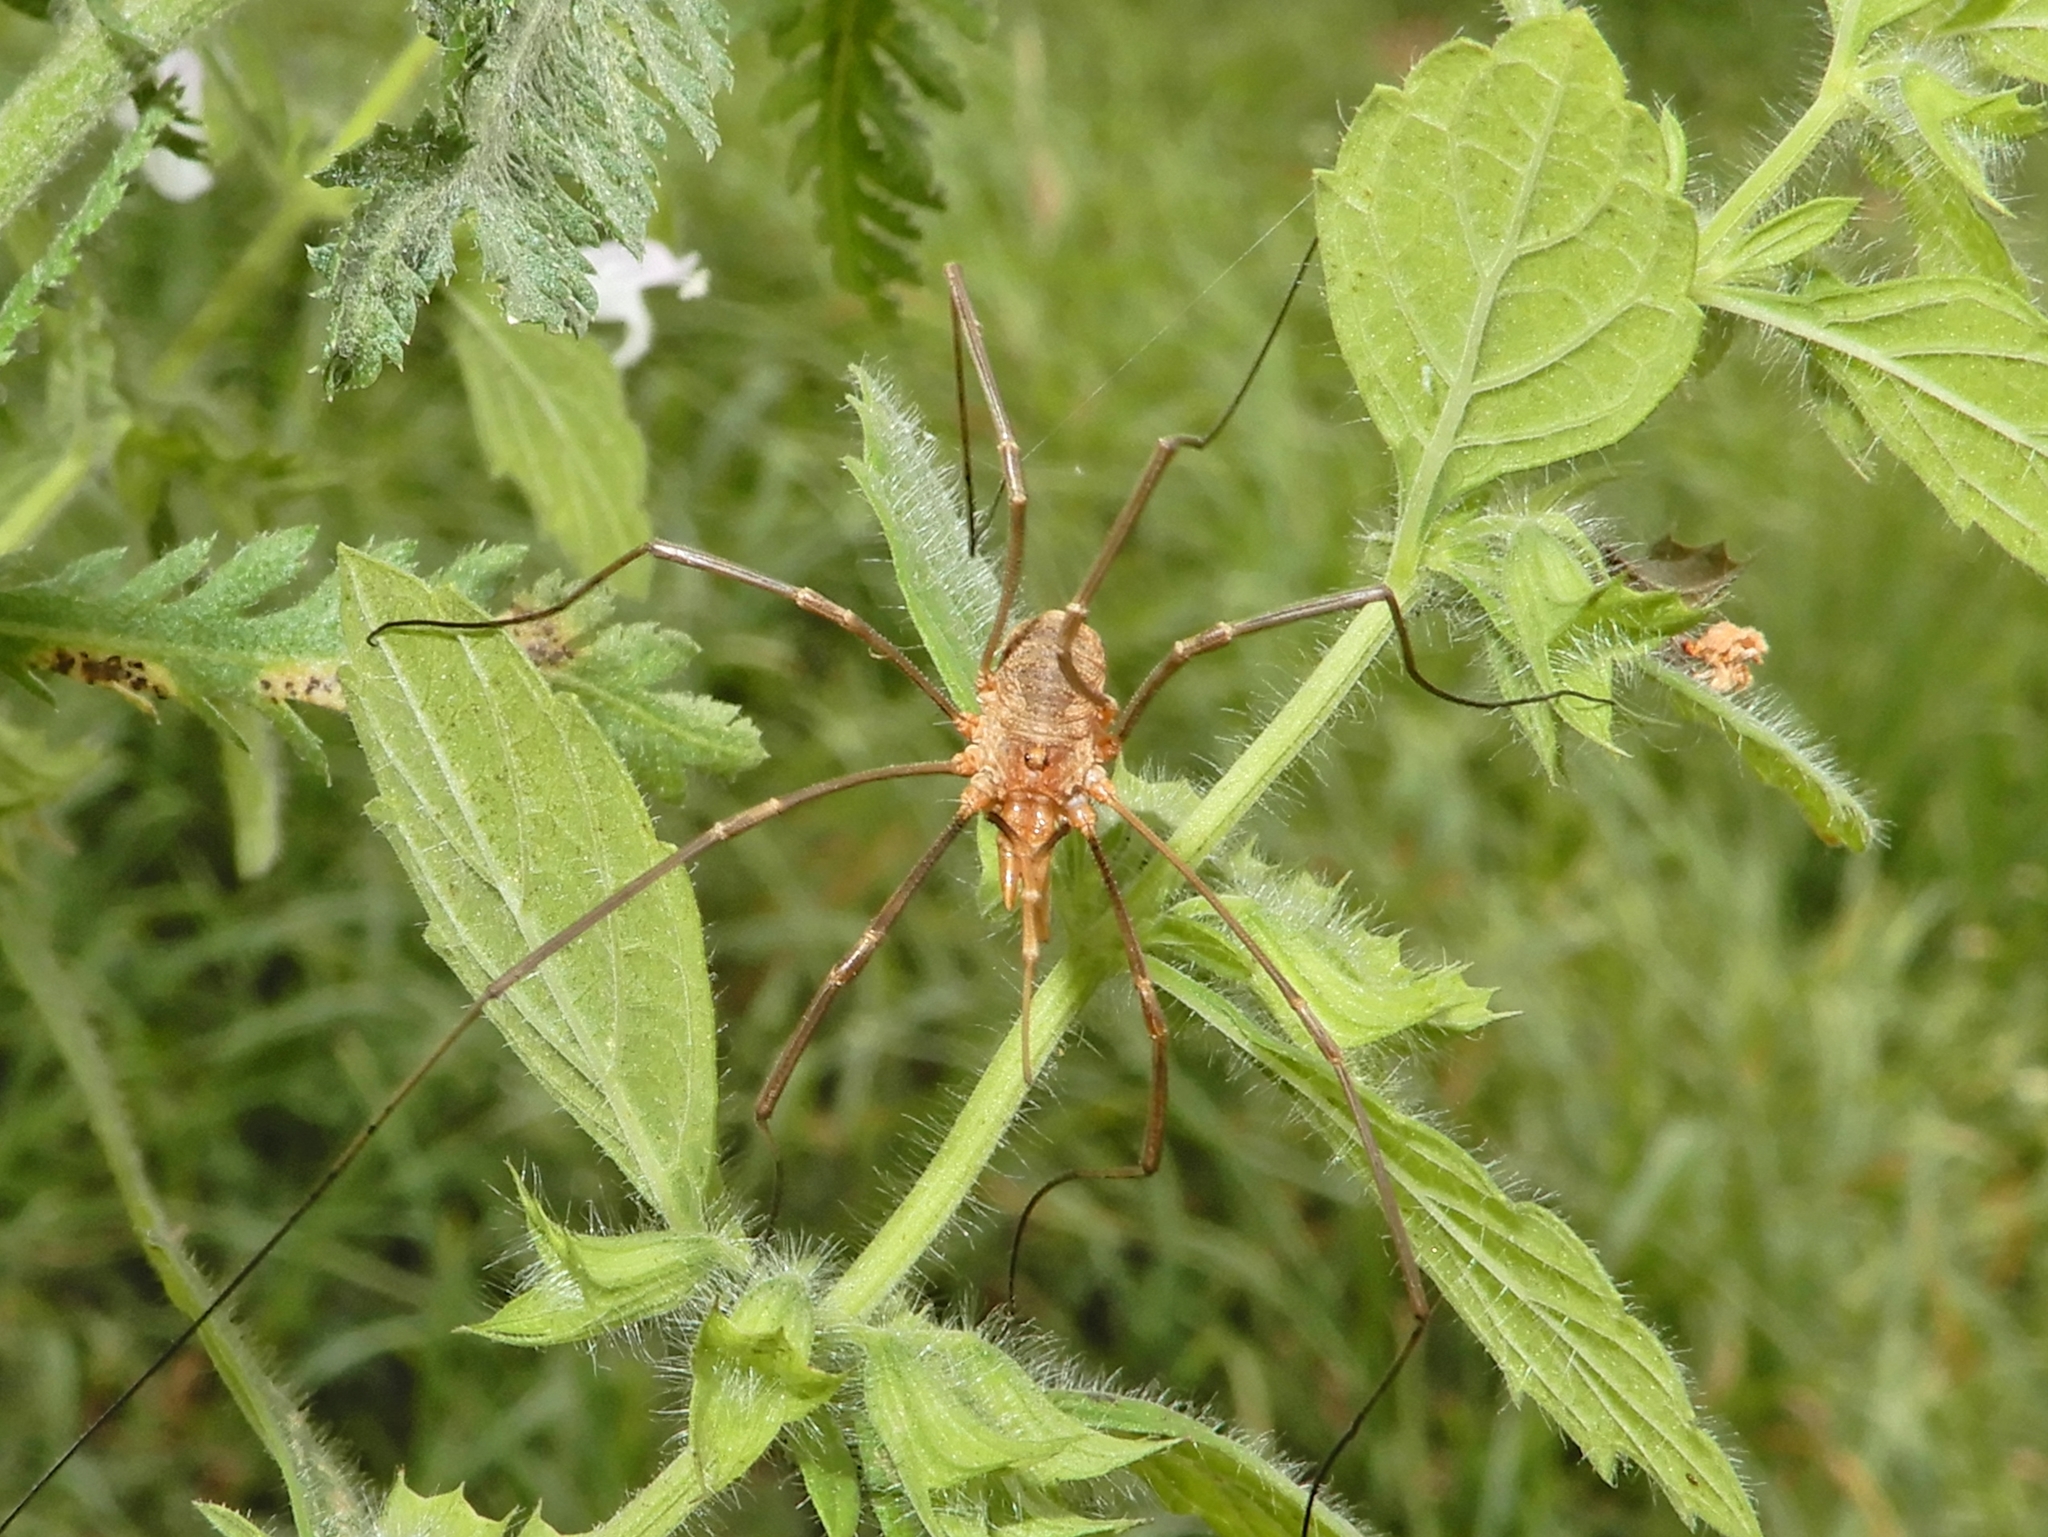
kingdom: Animalia
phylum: Arthropoda
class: Arachnida
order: Opiliones
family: Phalangiidae
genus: Phalangium
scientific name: Phalangium opilio
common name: Daddy longleg
